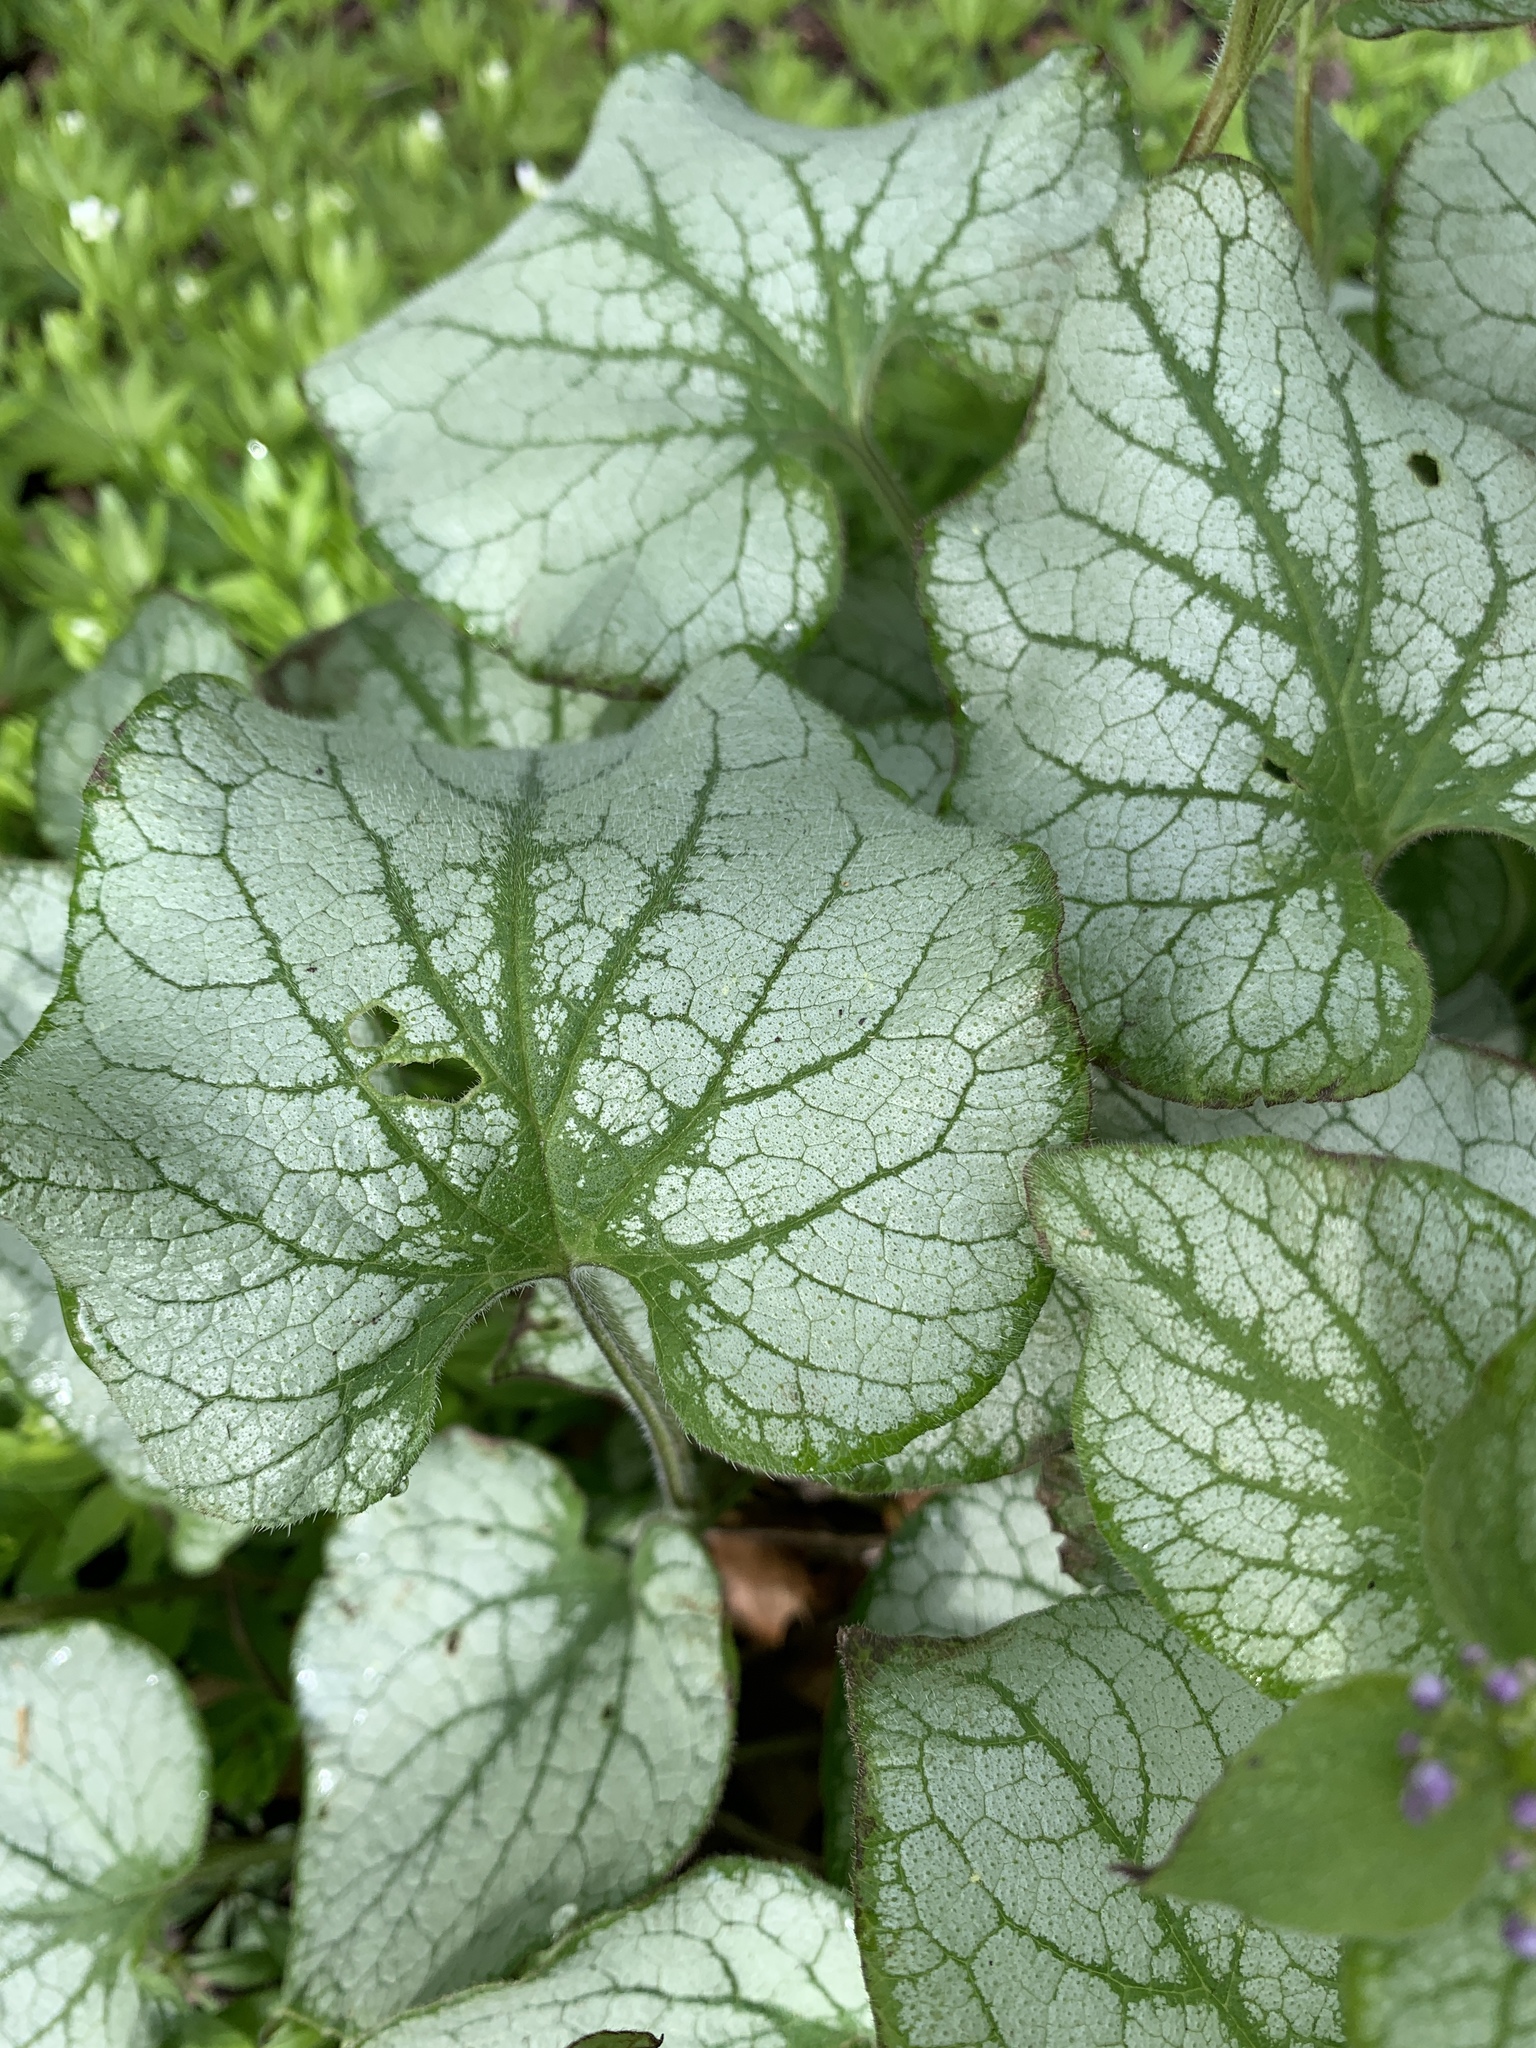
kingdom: Plantae
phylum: Tracheophyta
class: Magnoliopsida
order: Boraginales
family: Boraginaceae
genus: Brunnera
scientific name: Brunnera macrophylla
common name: Great forget-me-not
